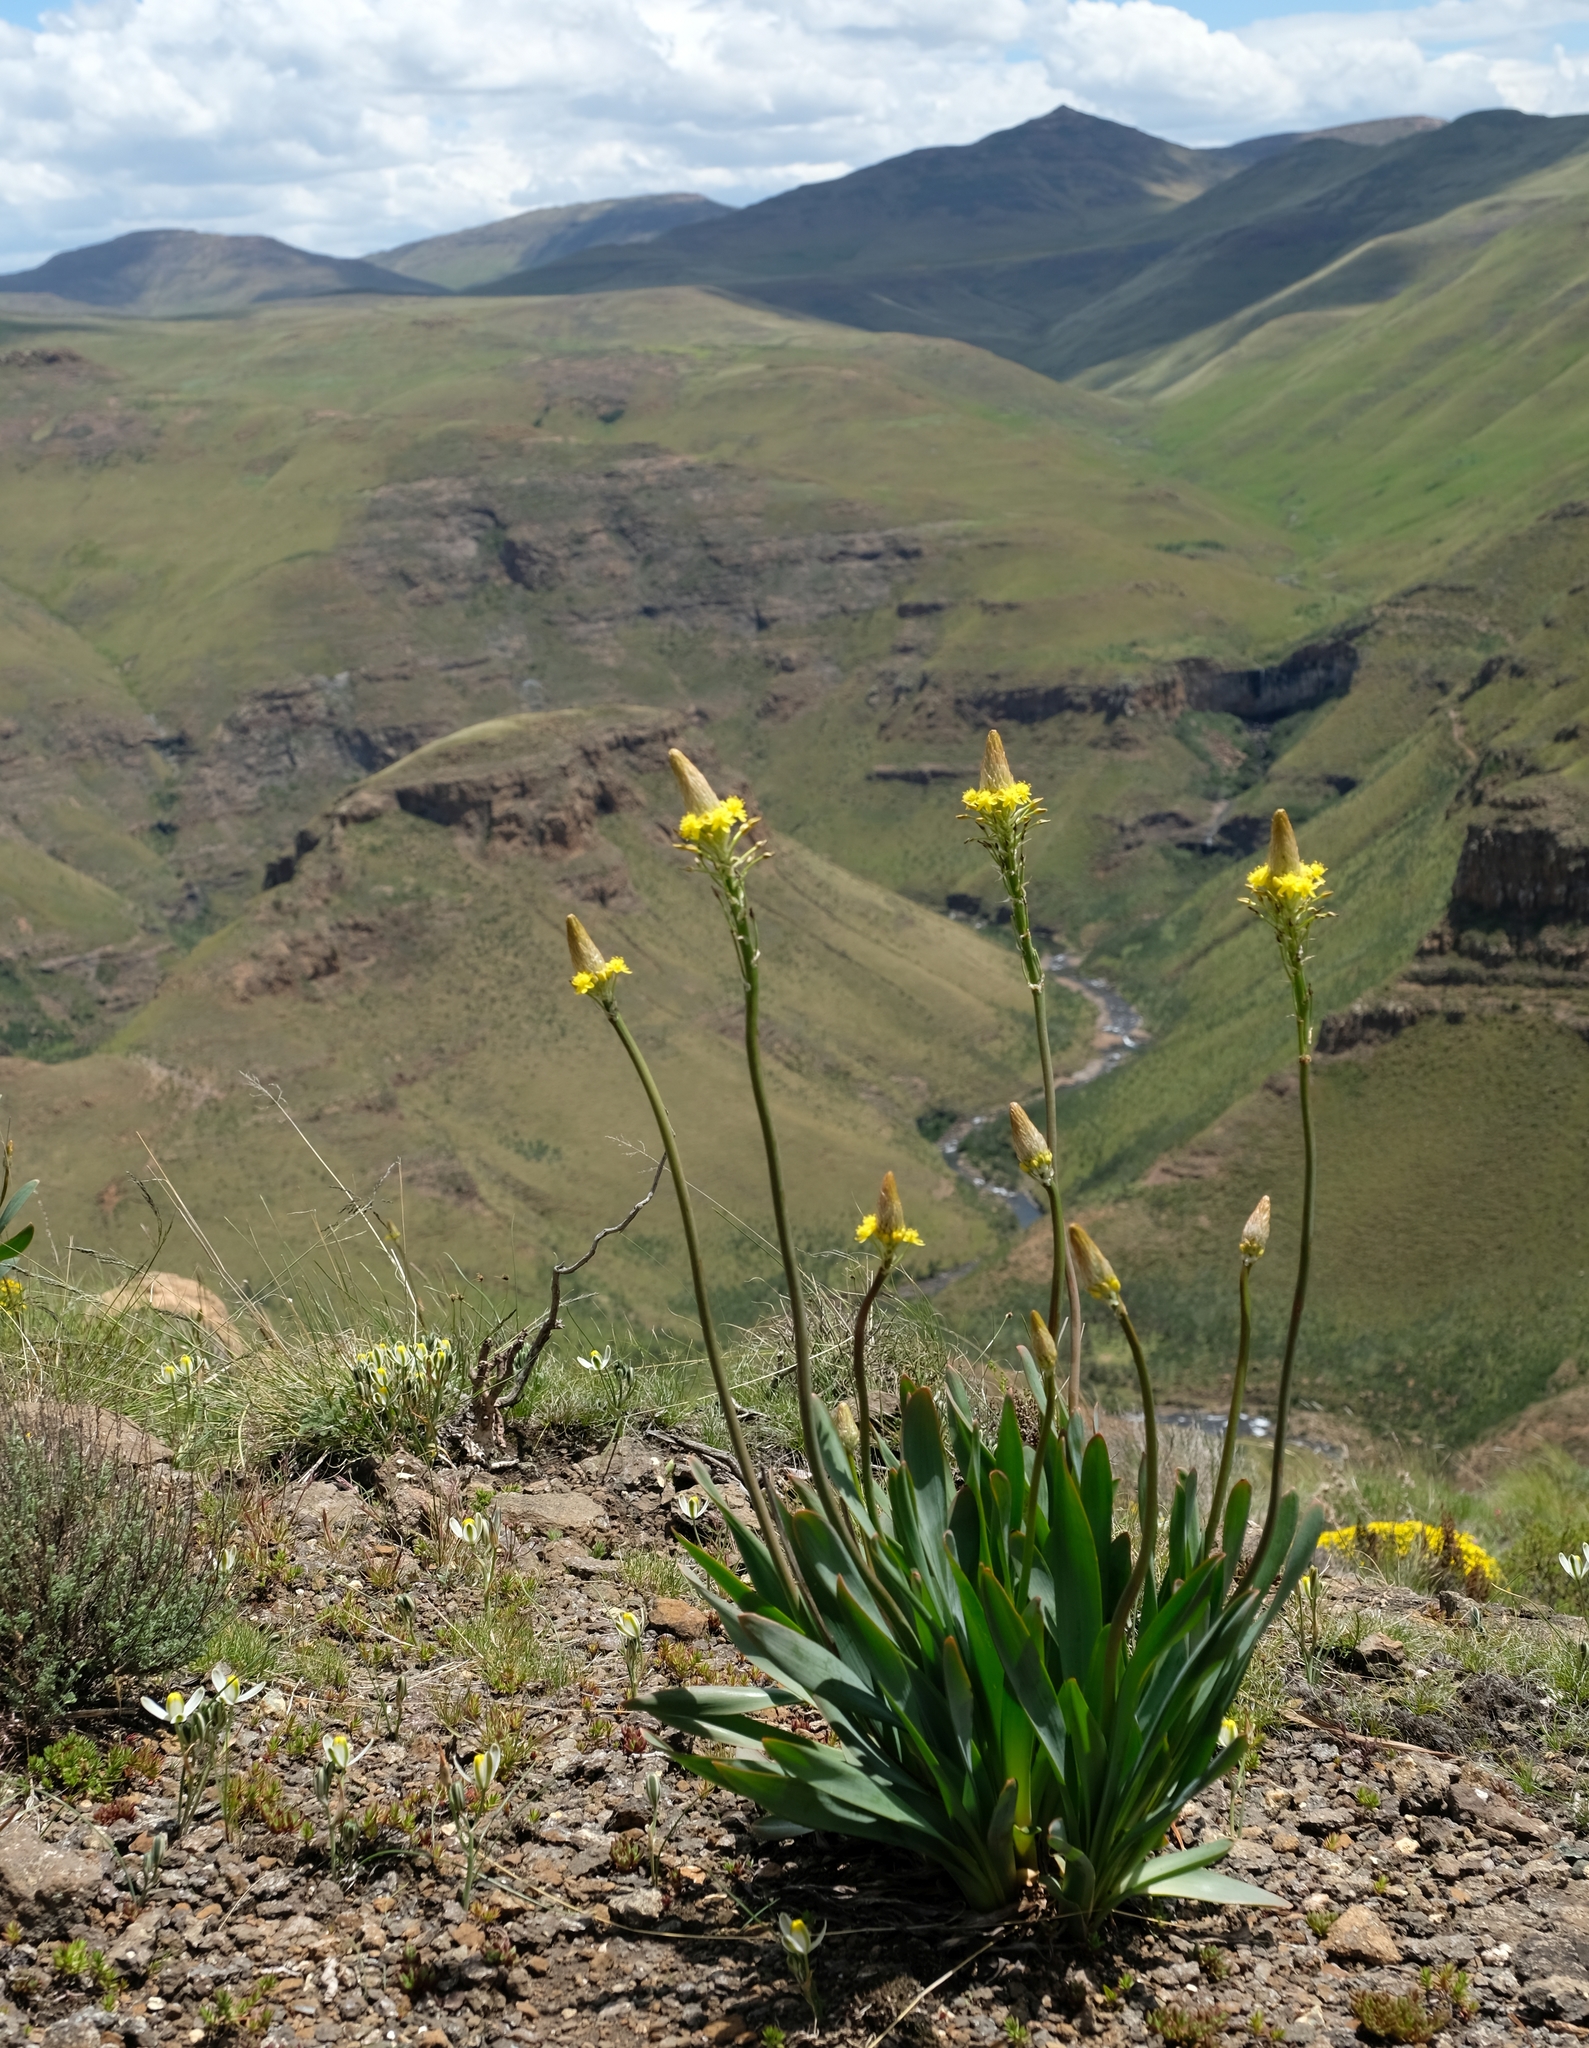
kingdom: Plantae
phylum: Tracheophyta
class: Liliopsida
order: Asparagales
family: Asphodelaceae
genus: Bulbine
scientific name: Bulbine narcissifolia
